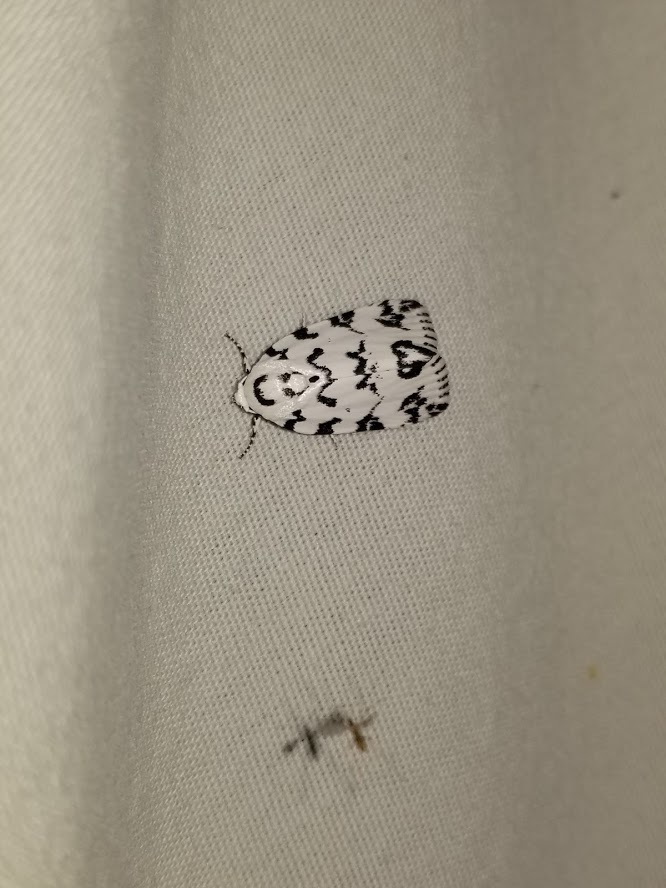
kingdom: Animalia
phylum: Arthropoda
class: Insecta
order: Lepidoptera
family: Noctuidae
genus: Polygrammate
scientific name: Polygrammate hebraeicum
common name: Hebrew moth
